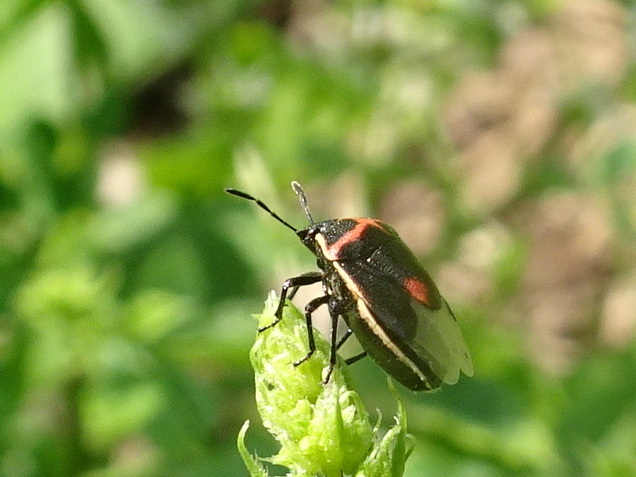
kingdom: Animalia
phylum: Arthropoda
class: Insecta
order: Hemiptera
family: Pentatomidae
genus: Cosmopepla
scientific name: Cosmopepla lintneriana
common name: Twice-stabbed stink bug
